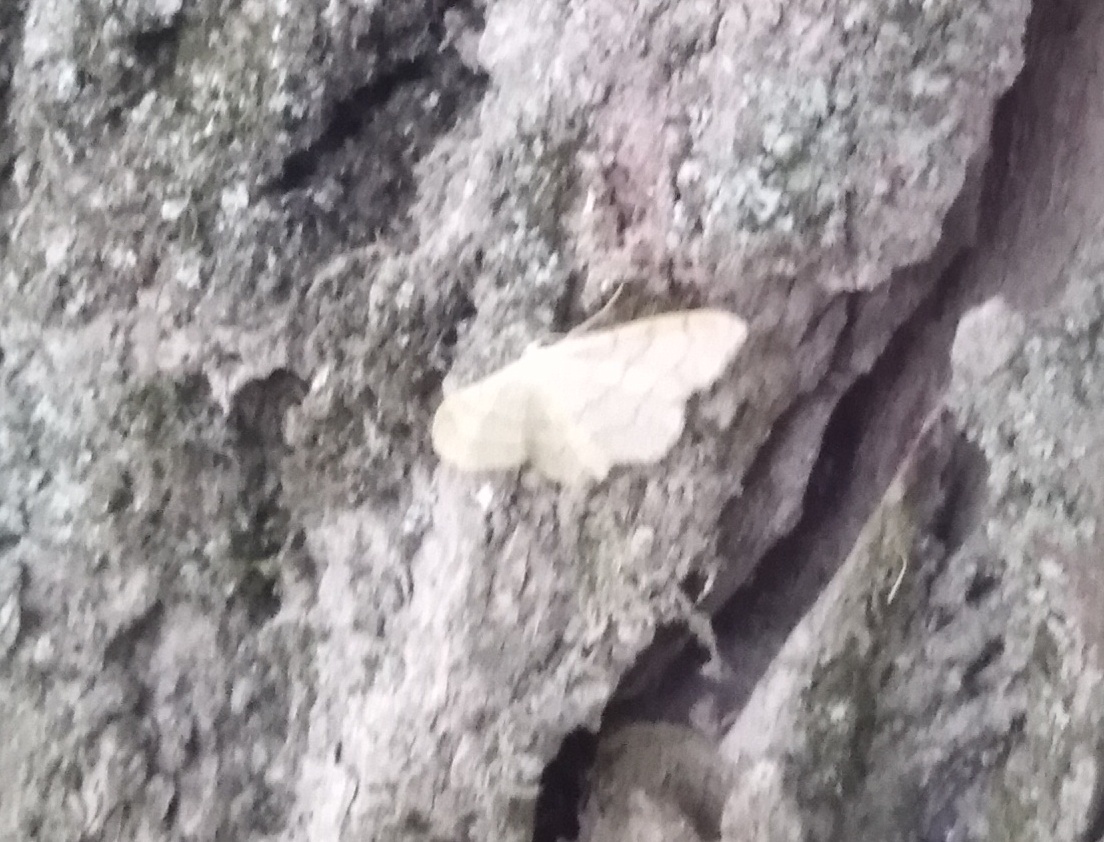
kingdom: Animalia
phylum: Arthropoda
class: Insecta
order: Lepidoptera
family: Geometridae
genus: Idaea
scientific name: Idaea aversata
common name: Riband wave
